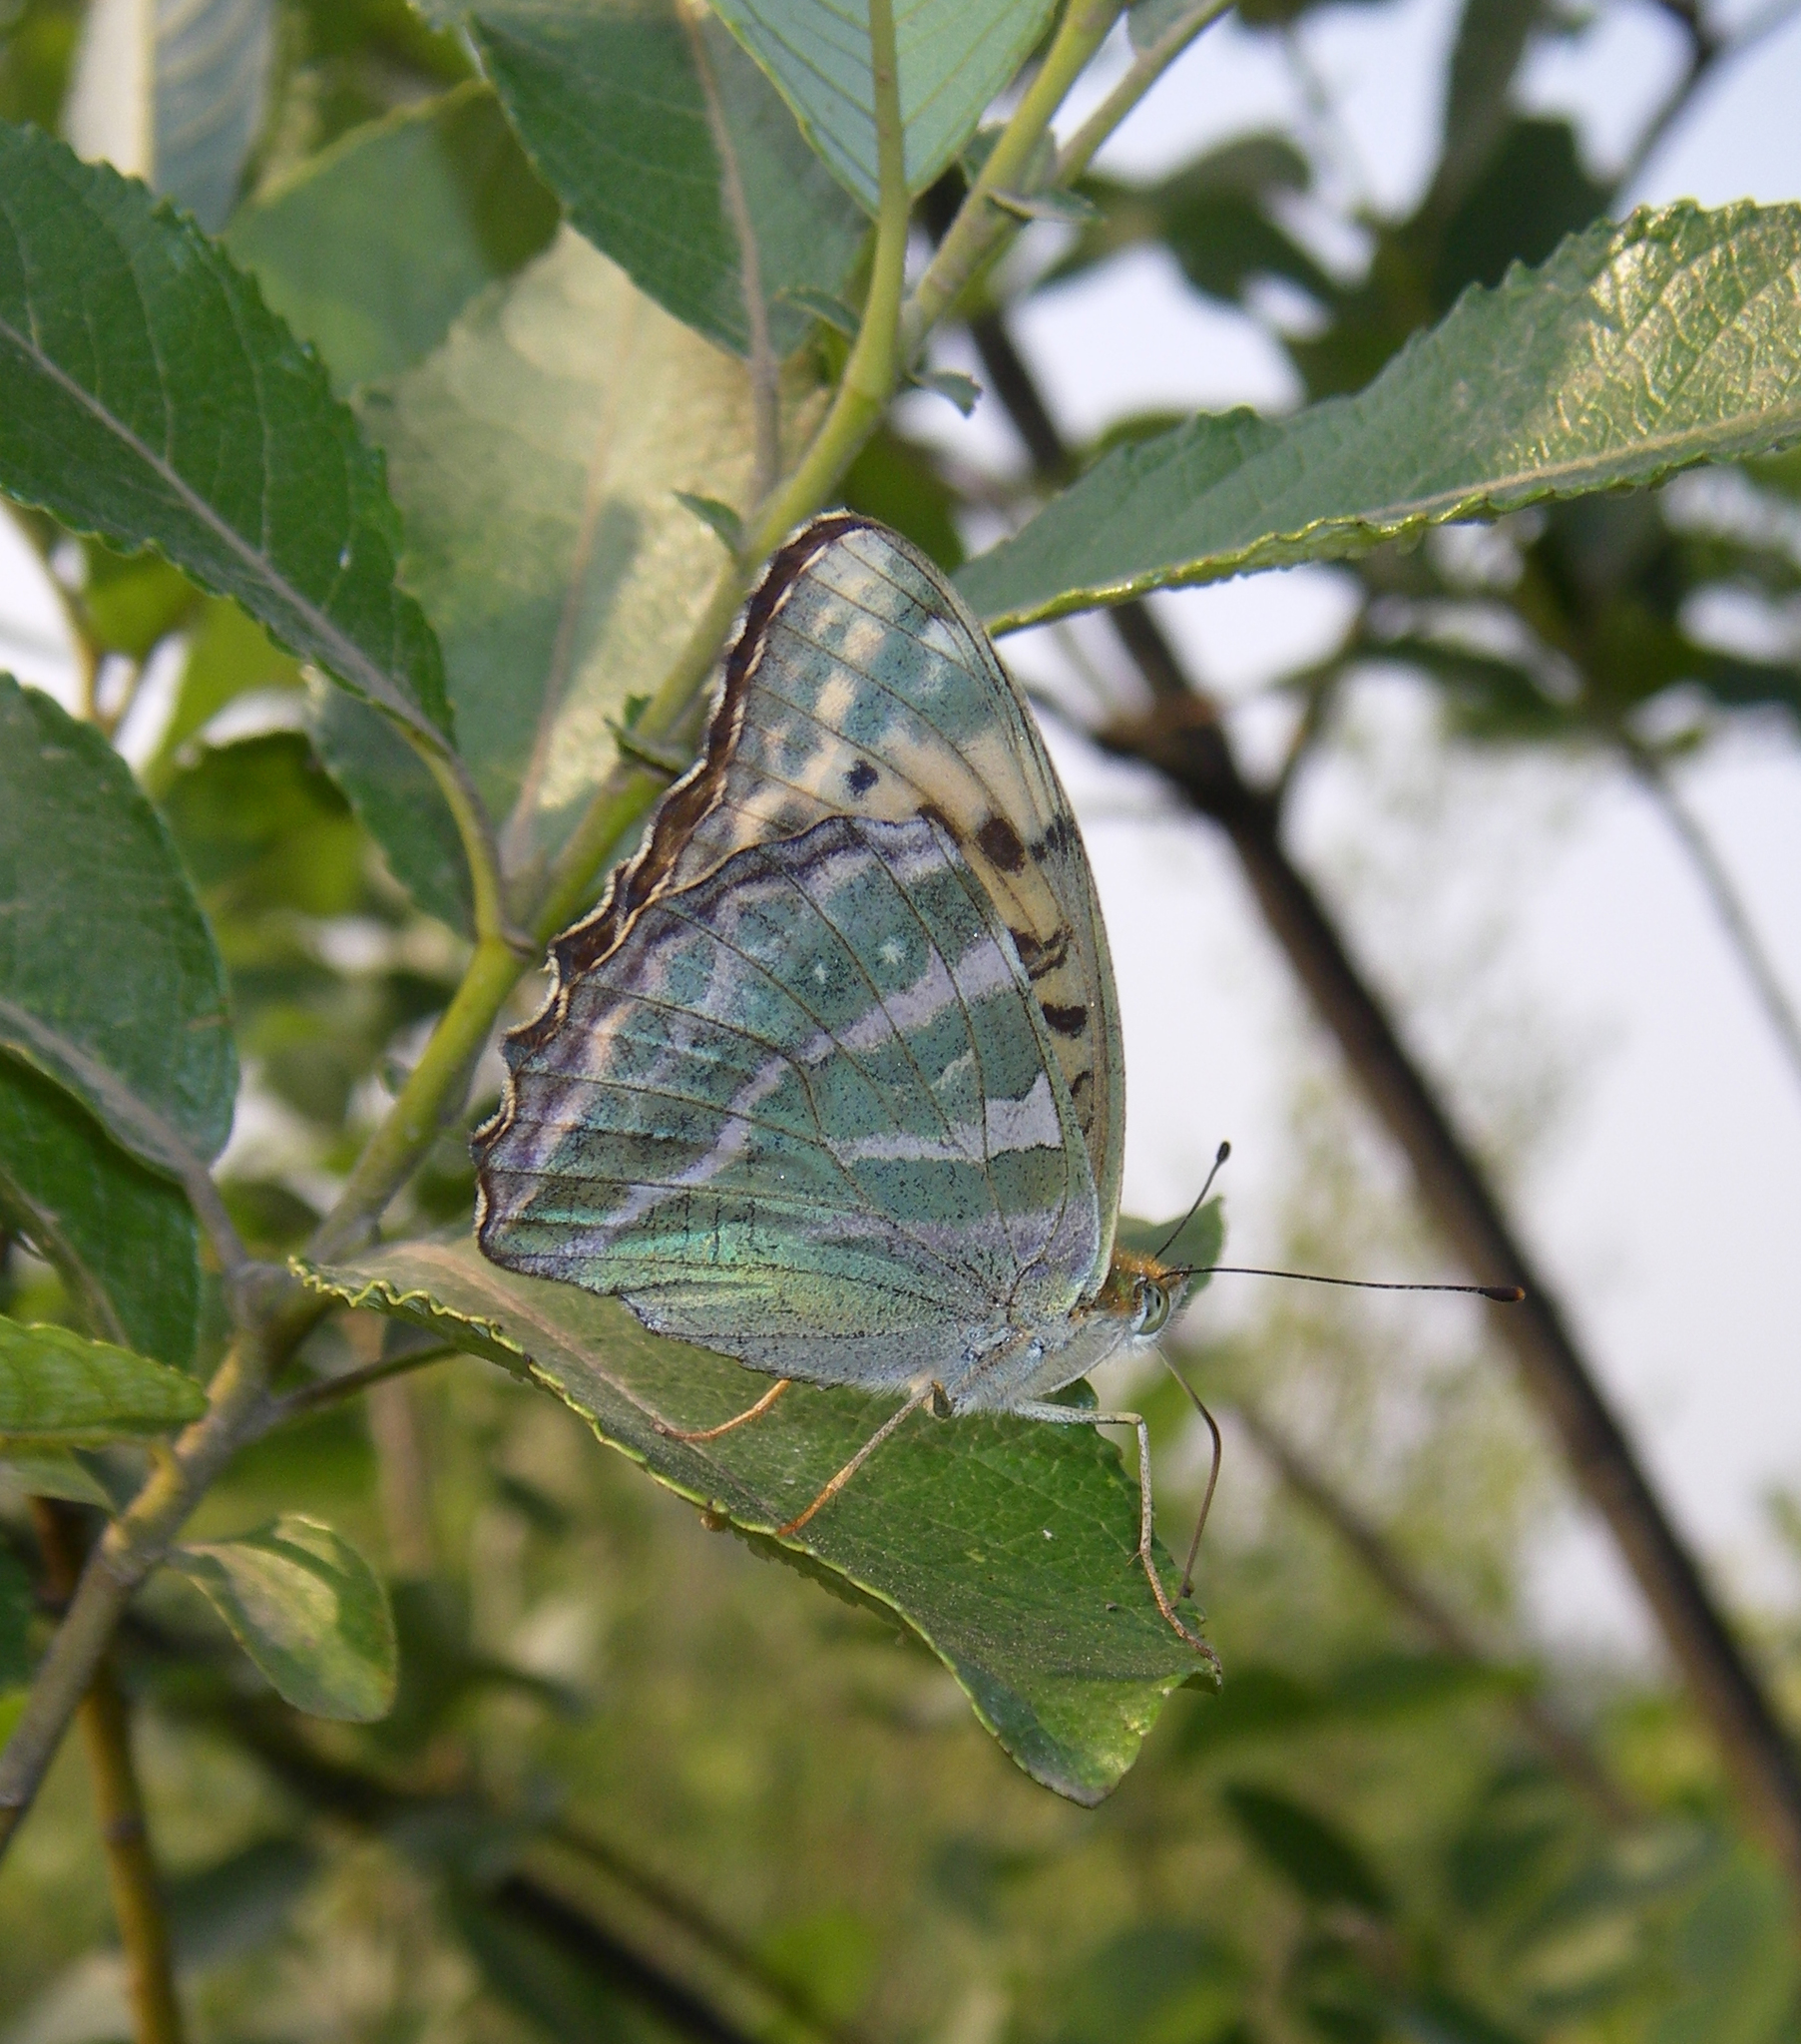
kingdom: Animalia
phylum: Arthropoda
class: Insecta
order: Lepidoptera
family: Nymphalidae
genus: Argynnis
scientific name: Argynnis paphia
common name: Silver-washed fritillary
